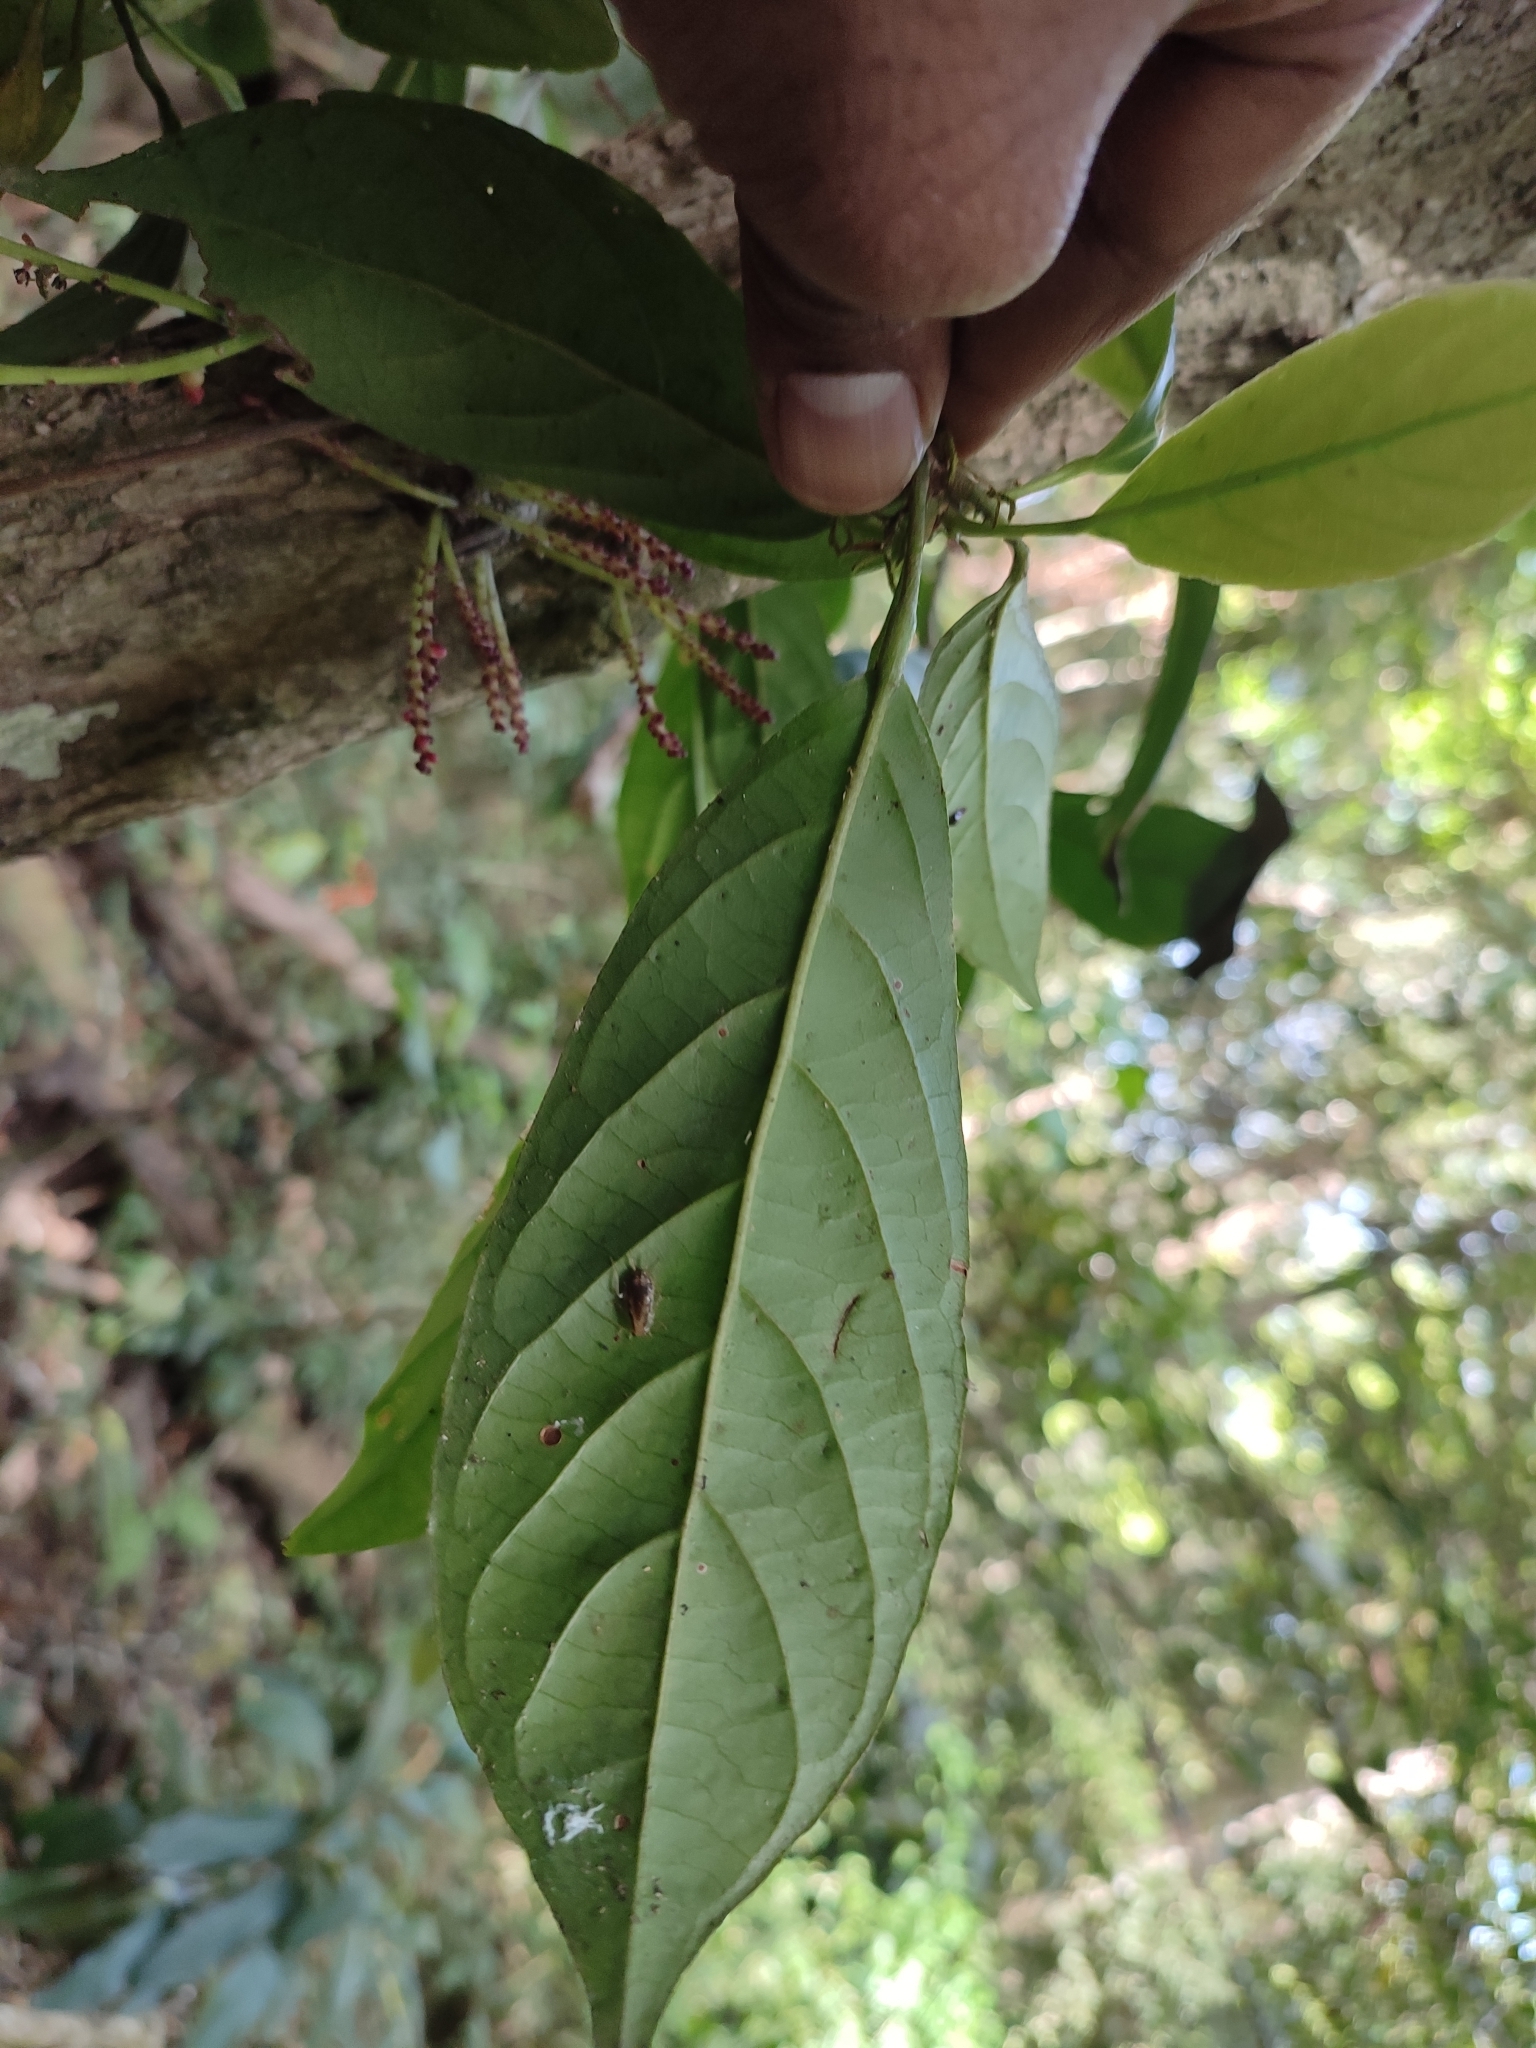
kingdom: Plantae
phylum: Tracheophyta
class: Magnoliopsida
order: Malpighiales
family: Phyllanthaceae
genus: Baccaurea
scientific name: Baccaurea courtallensis
